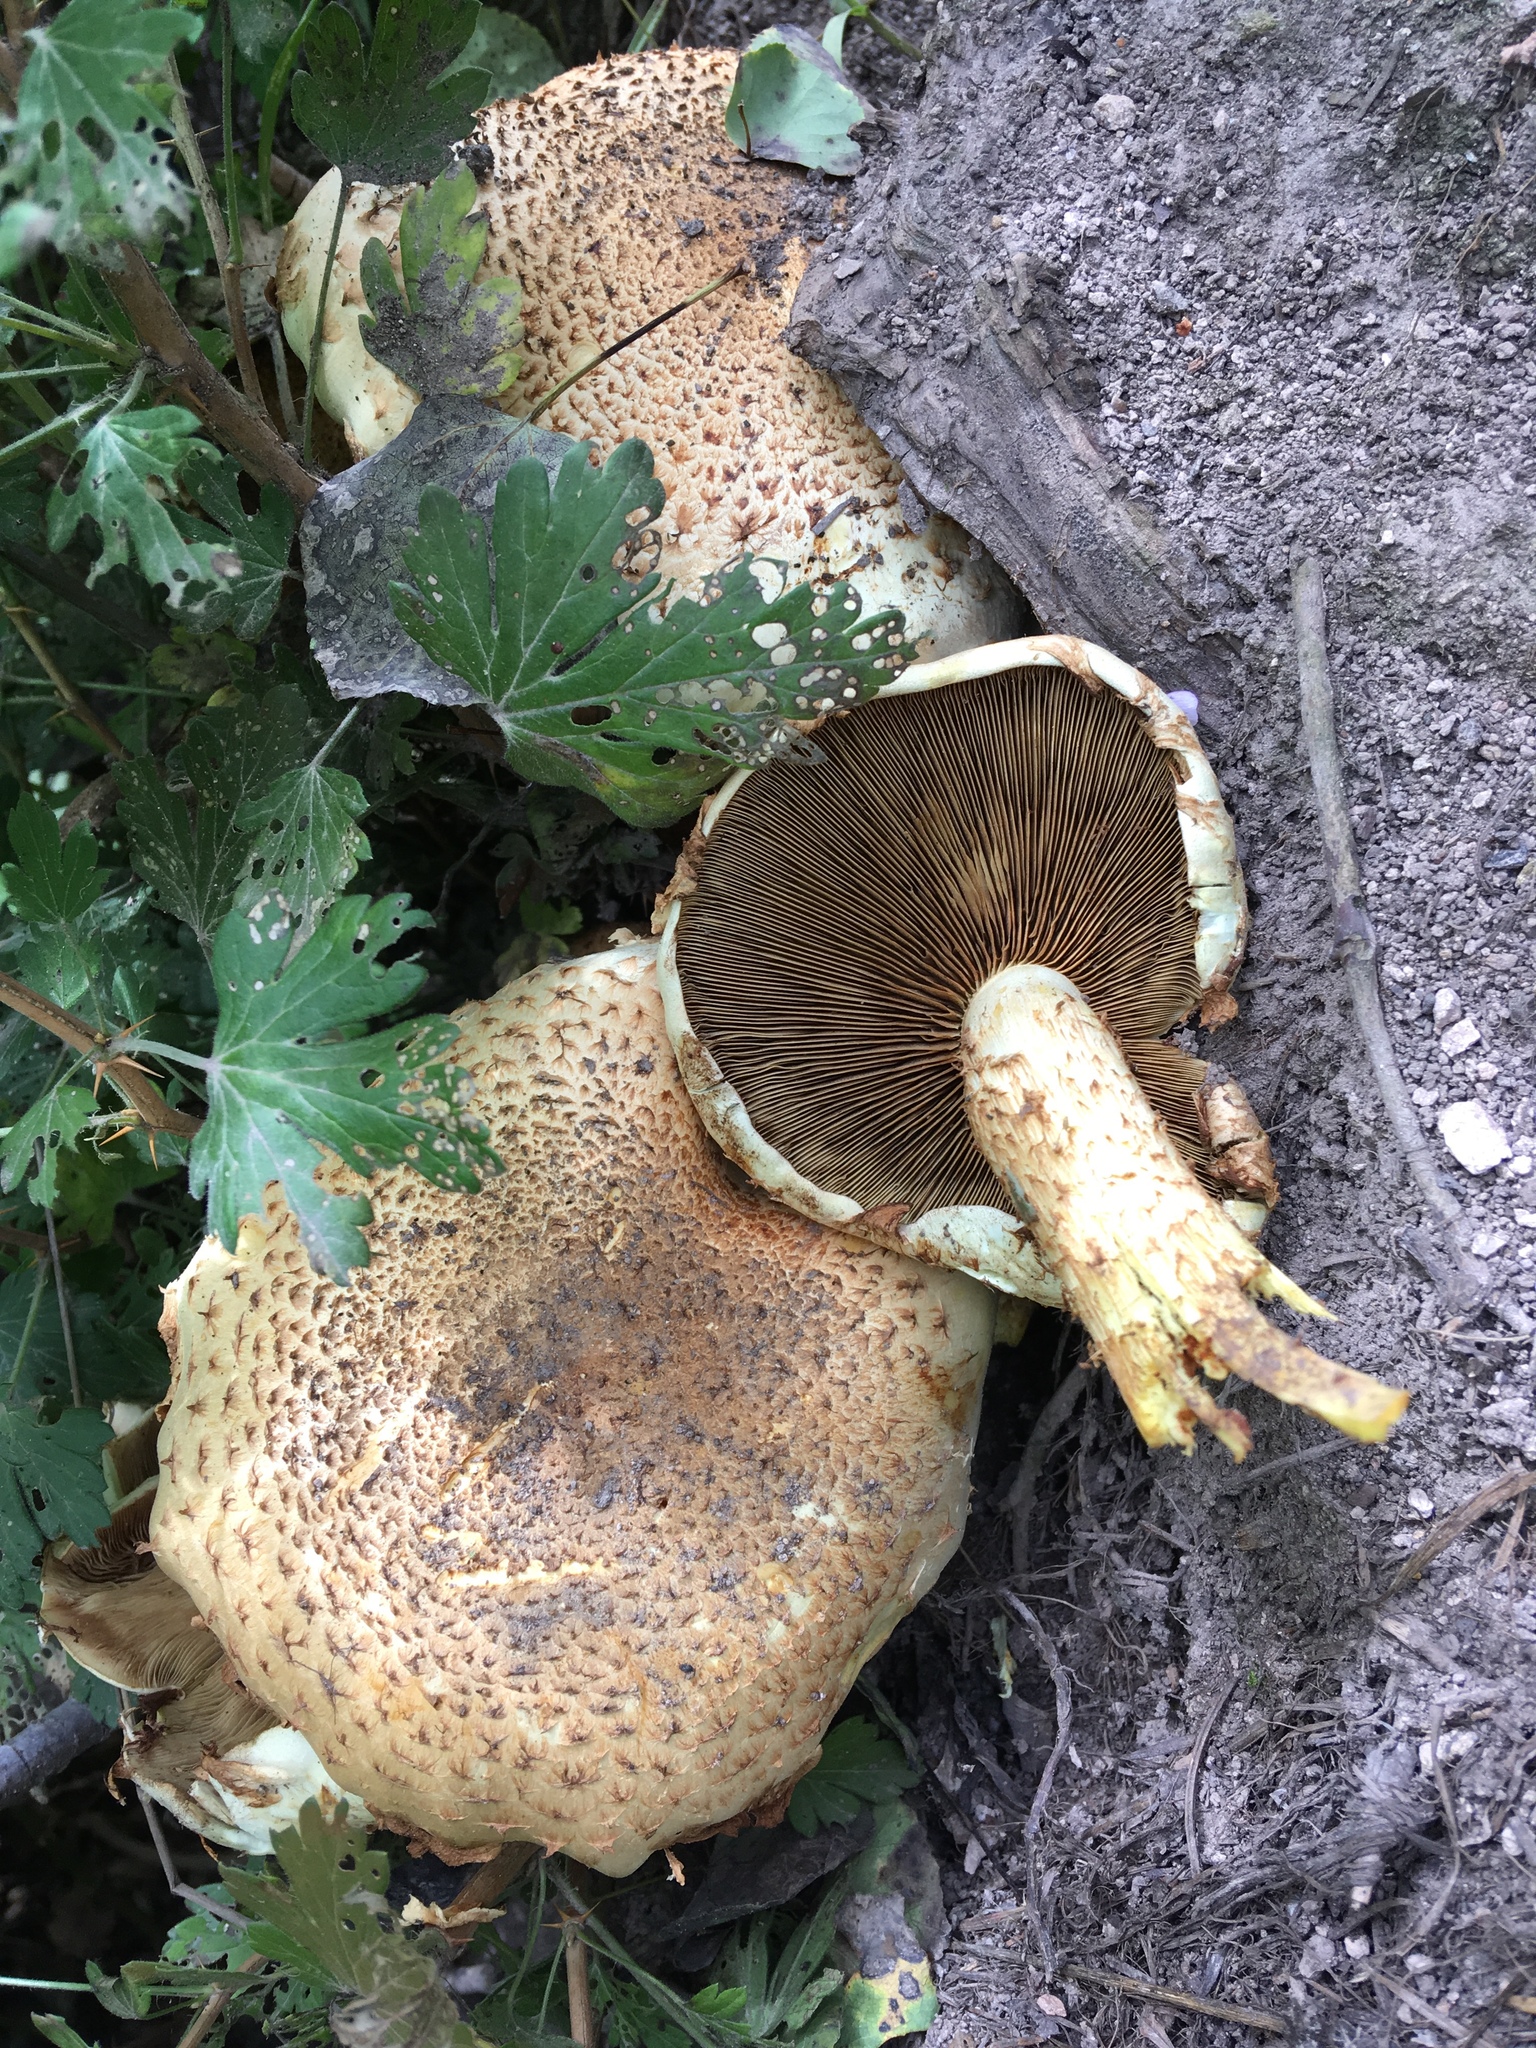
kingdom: Fungi
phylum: Basidiomycota
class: Agaricomycetes
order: Agaricales
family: Strophariaceae
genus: Pholiota
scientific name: Pholiota squarrosa
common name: Shaggy pholiota
